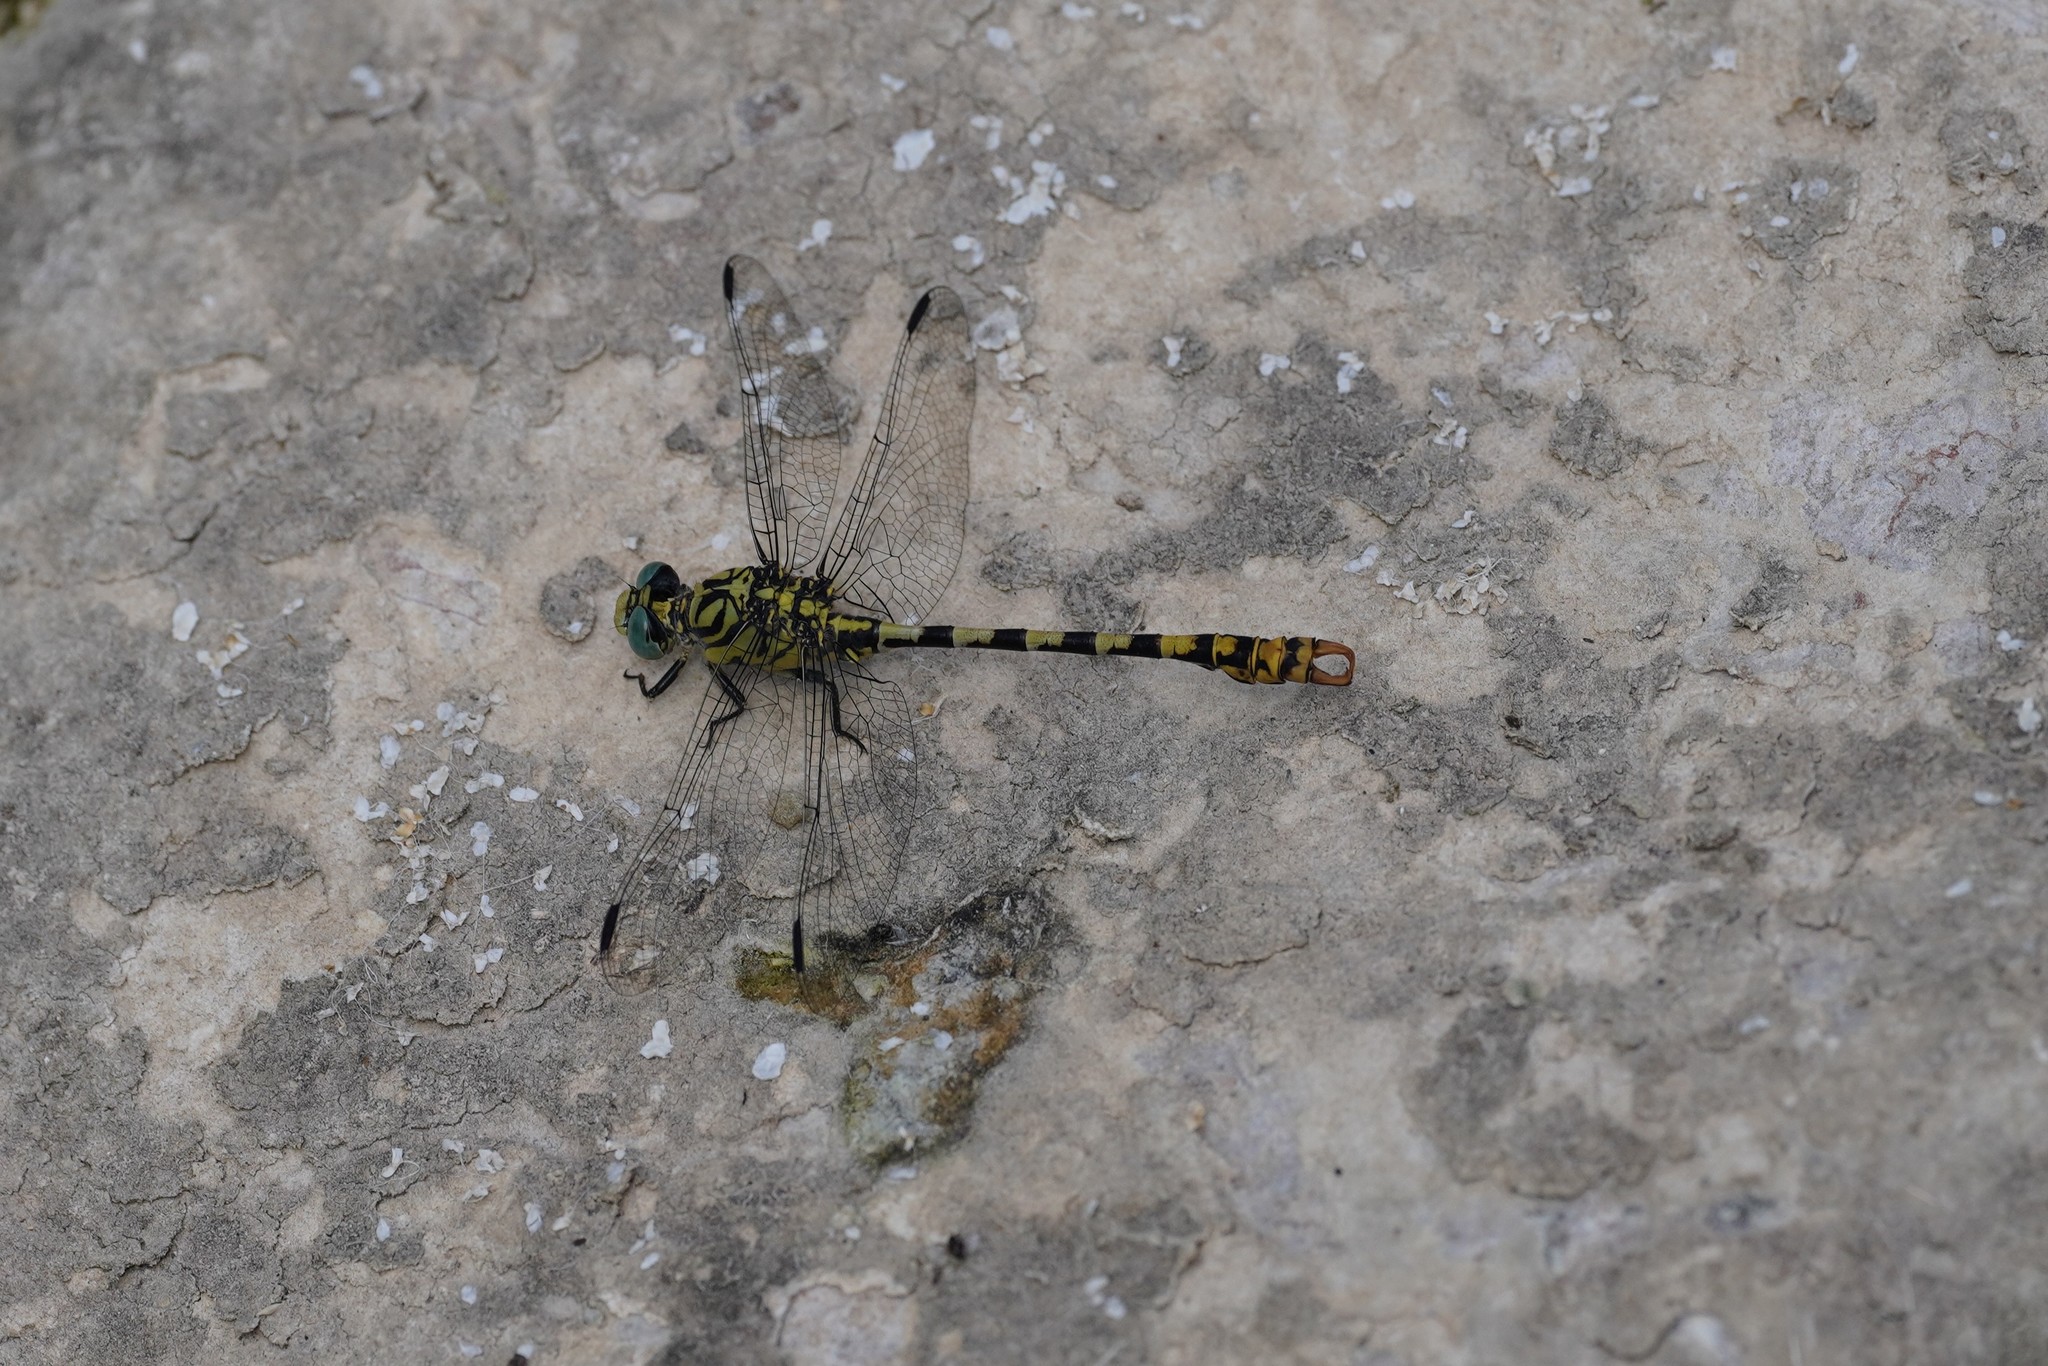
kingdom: Animalia
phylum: Arthropoda
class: Insecta
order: Odonata
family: Gomphidae
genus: Onychogomphus
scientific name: Onychogomphus forcipatus
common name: Small pincertail
